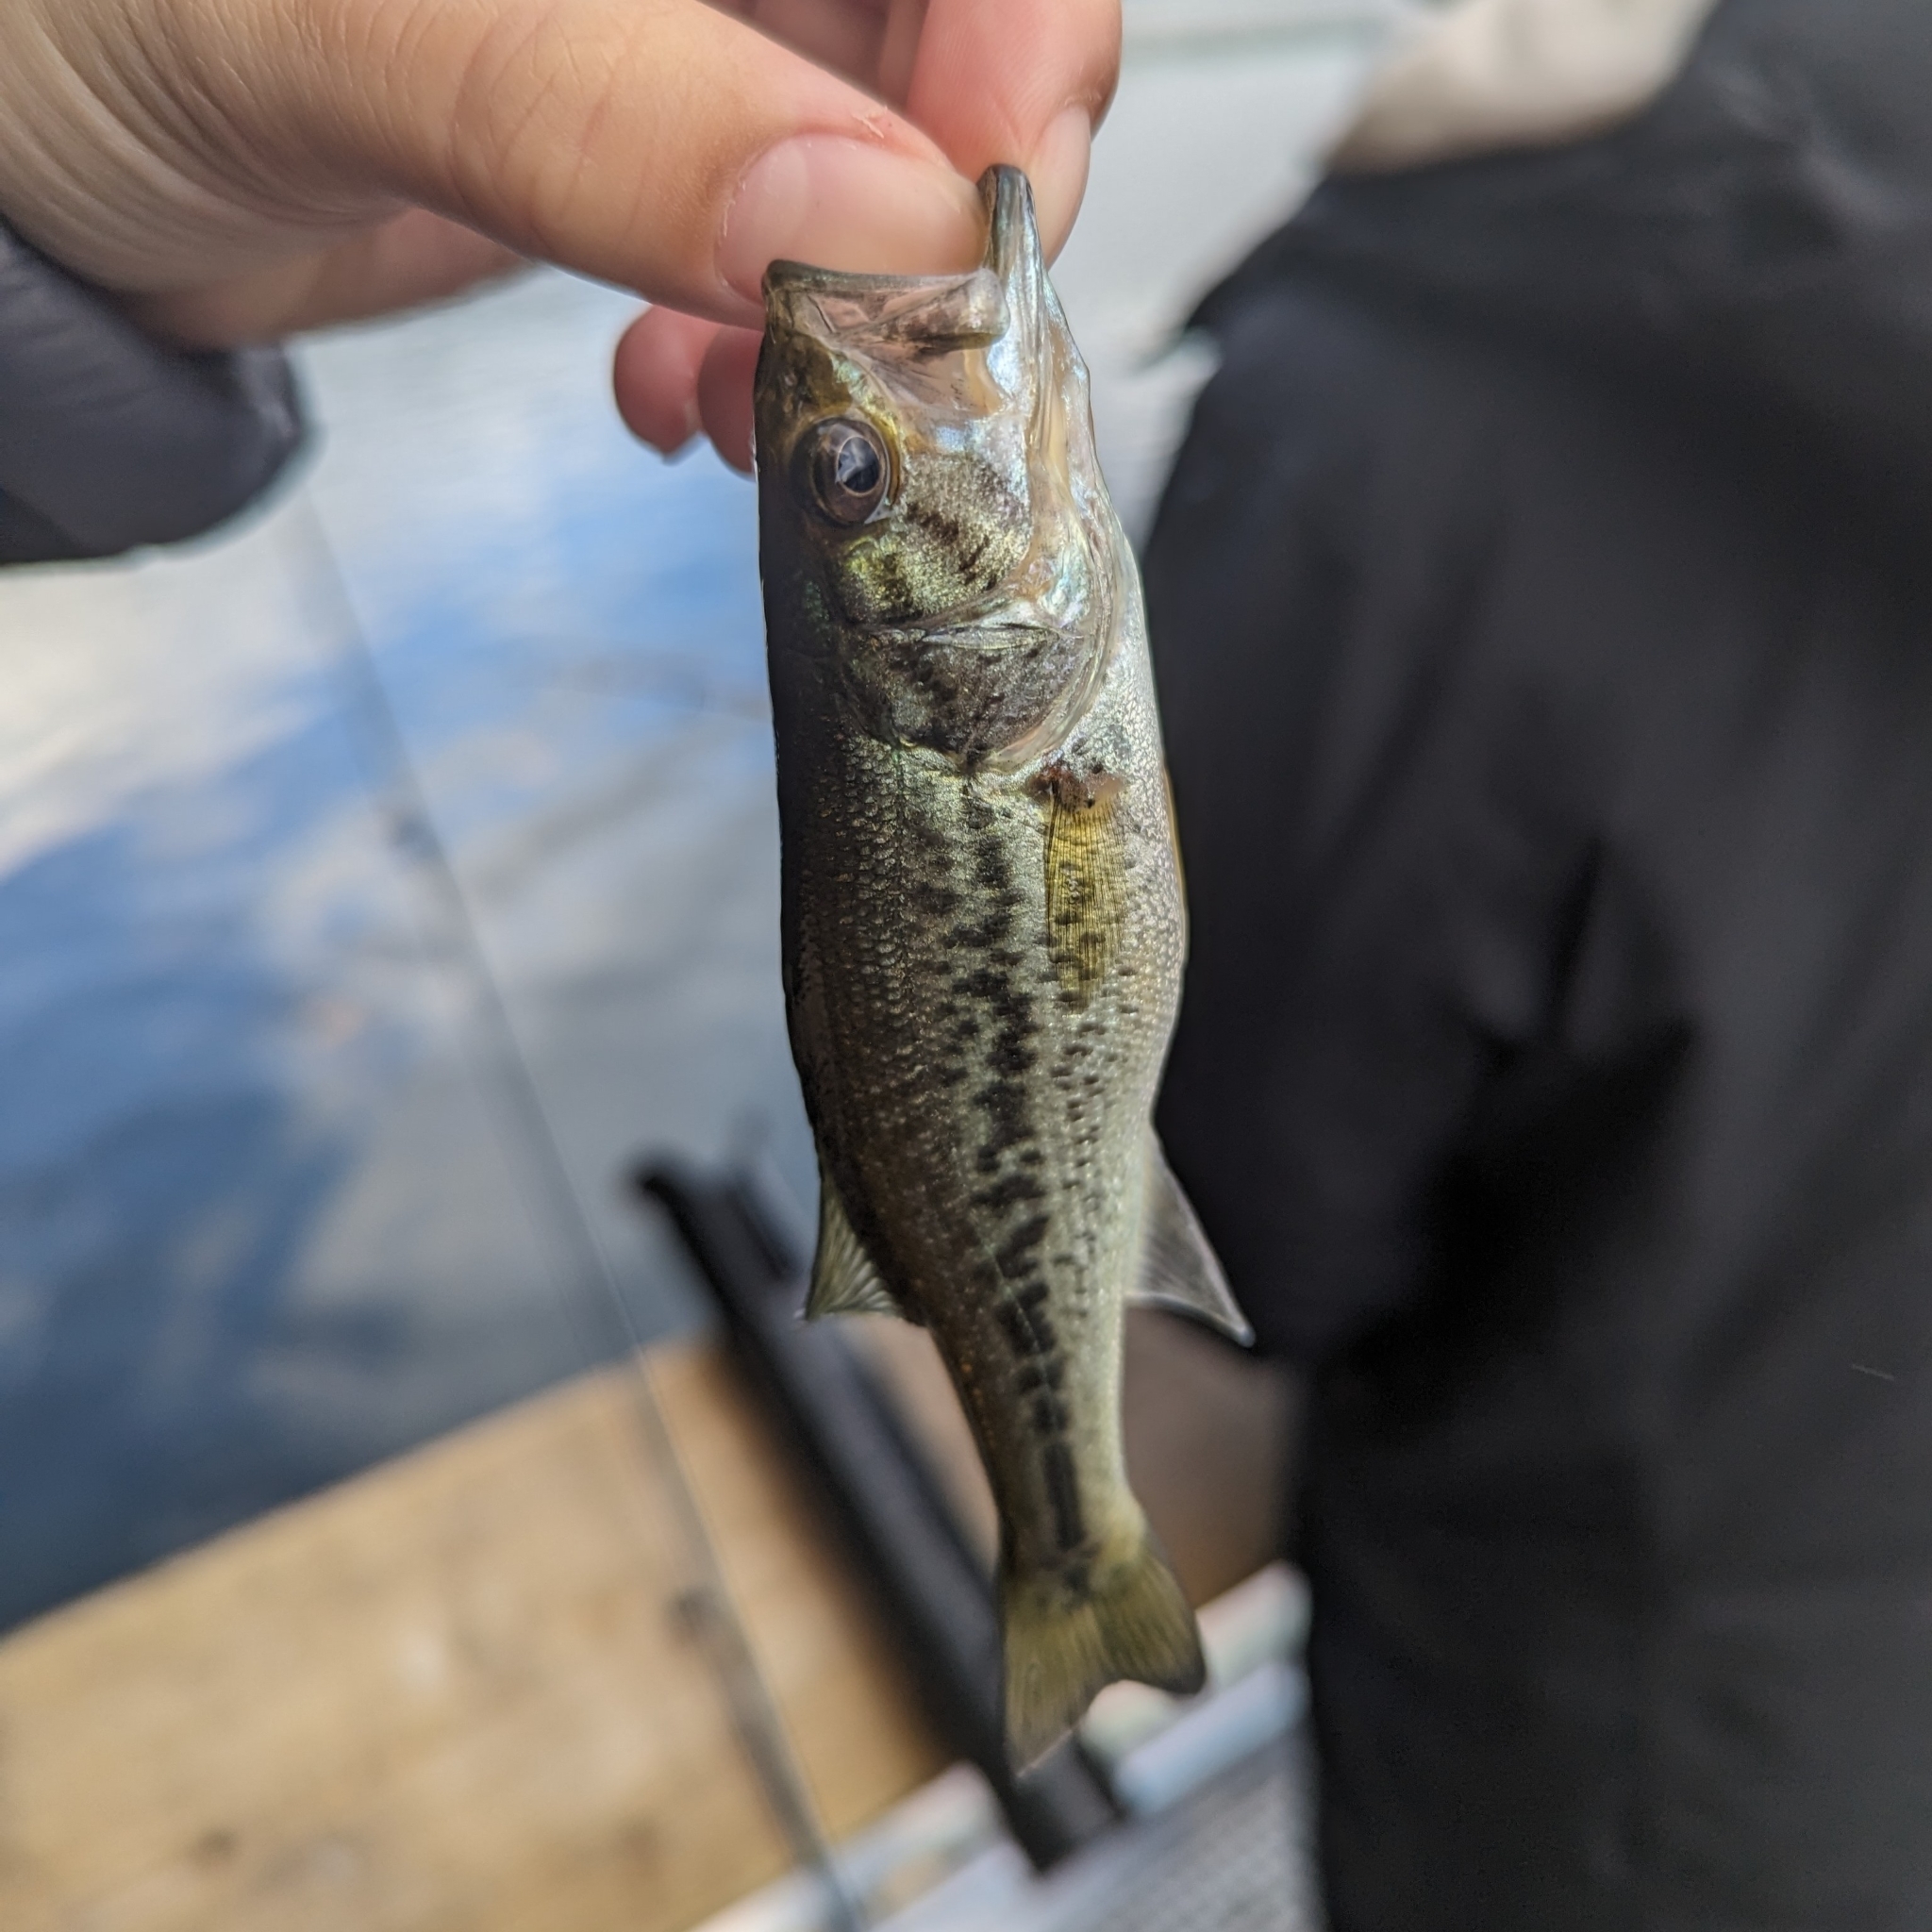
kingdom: Animalia
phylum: Chordata
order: Perciformes
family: Centrarchidae
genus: Micropterus
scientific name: Micropterus
